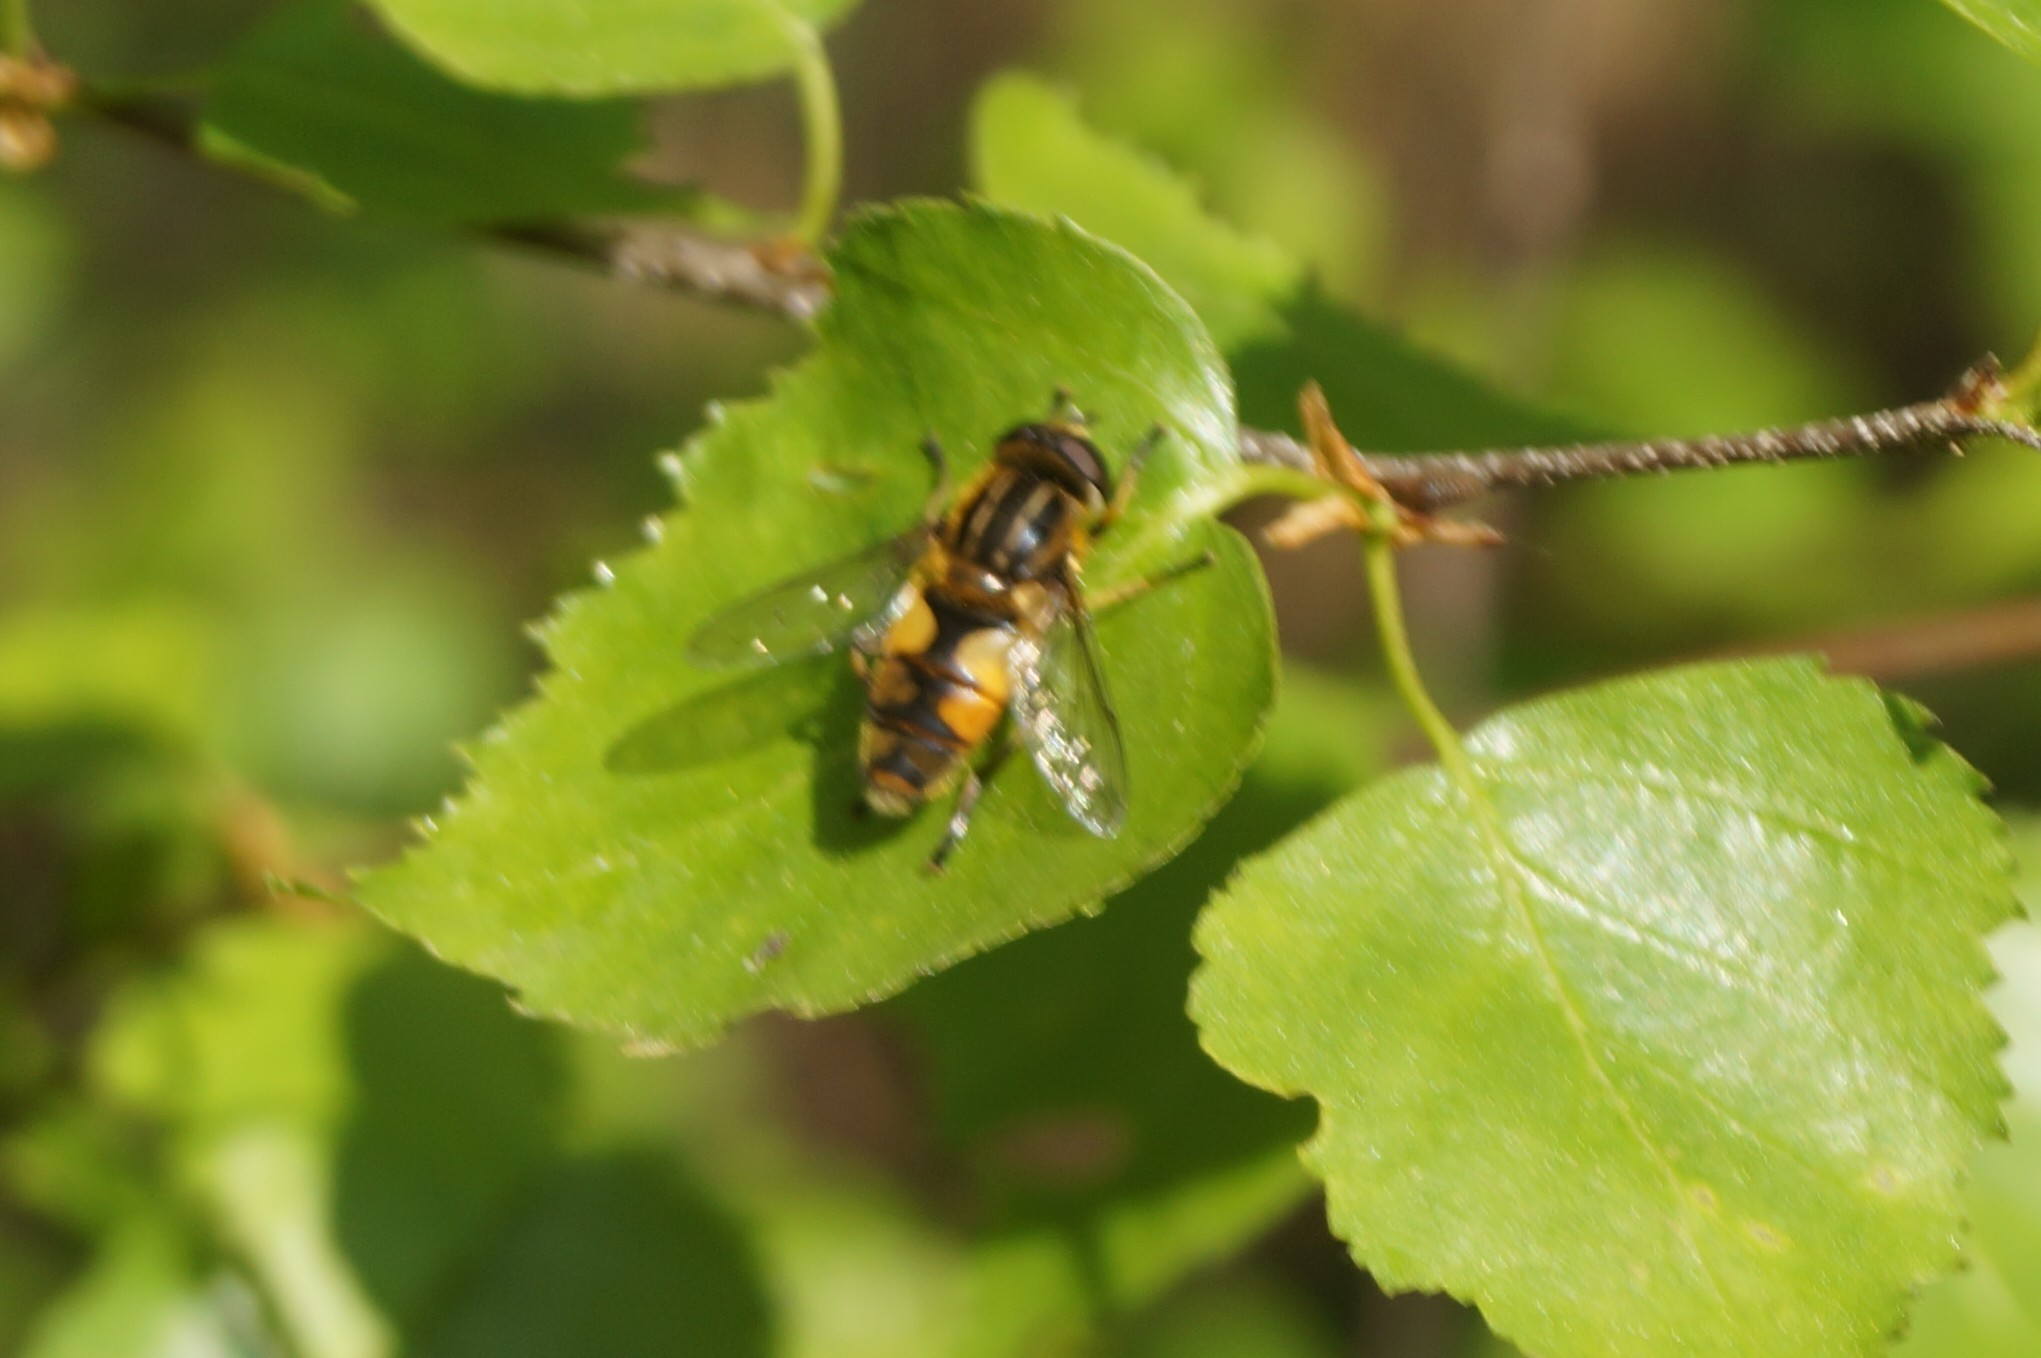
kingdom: Animalia
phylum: Arthropoda
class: Insecta
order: Diptera
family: Syrphidae
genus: Helophilus
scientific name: Helophilus hybridus
